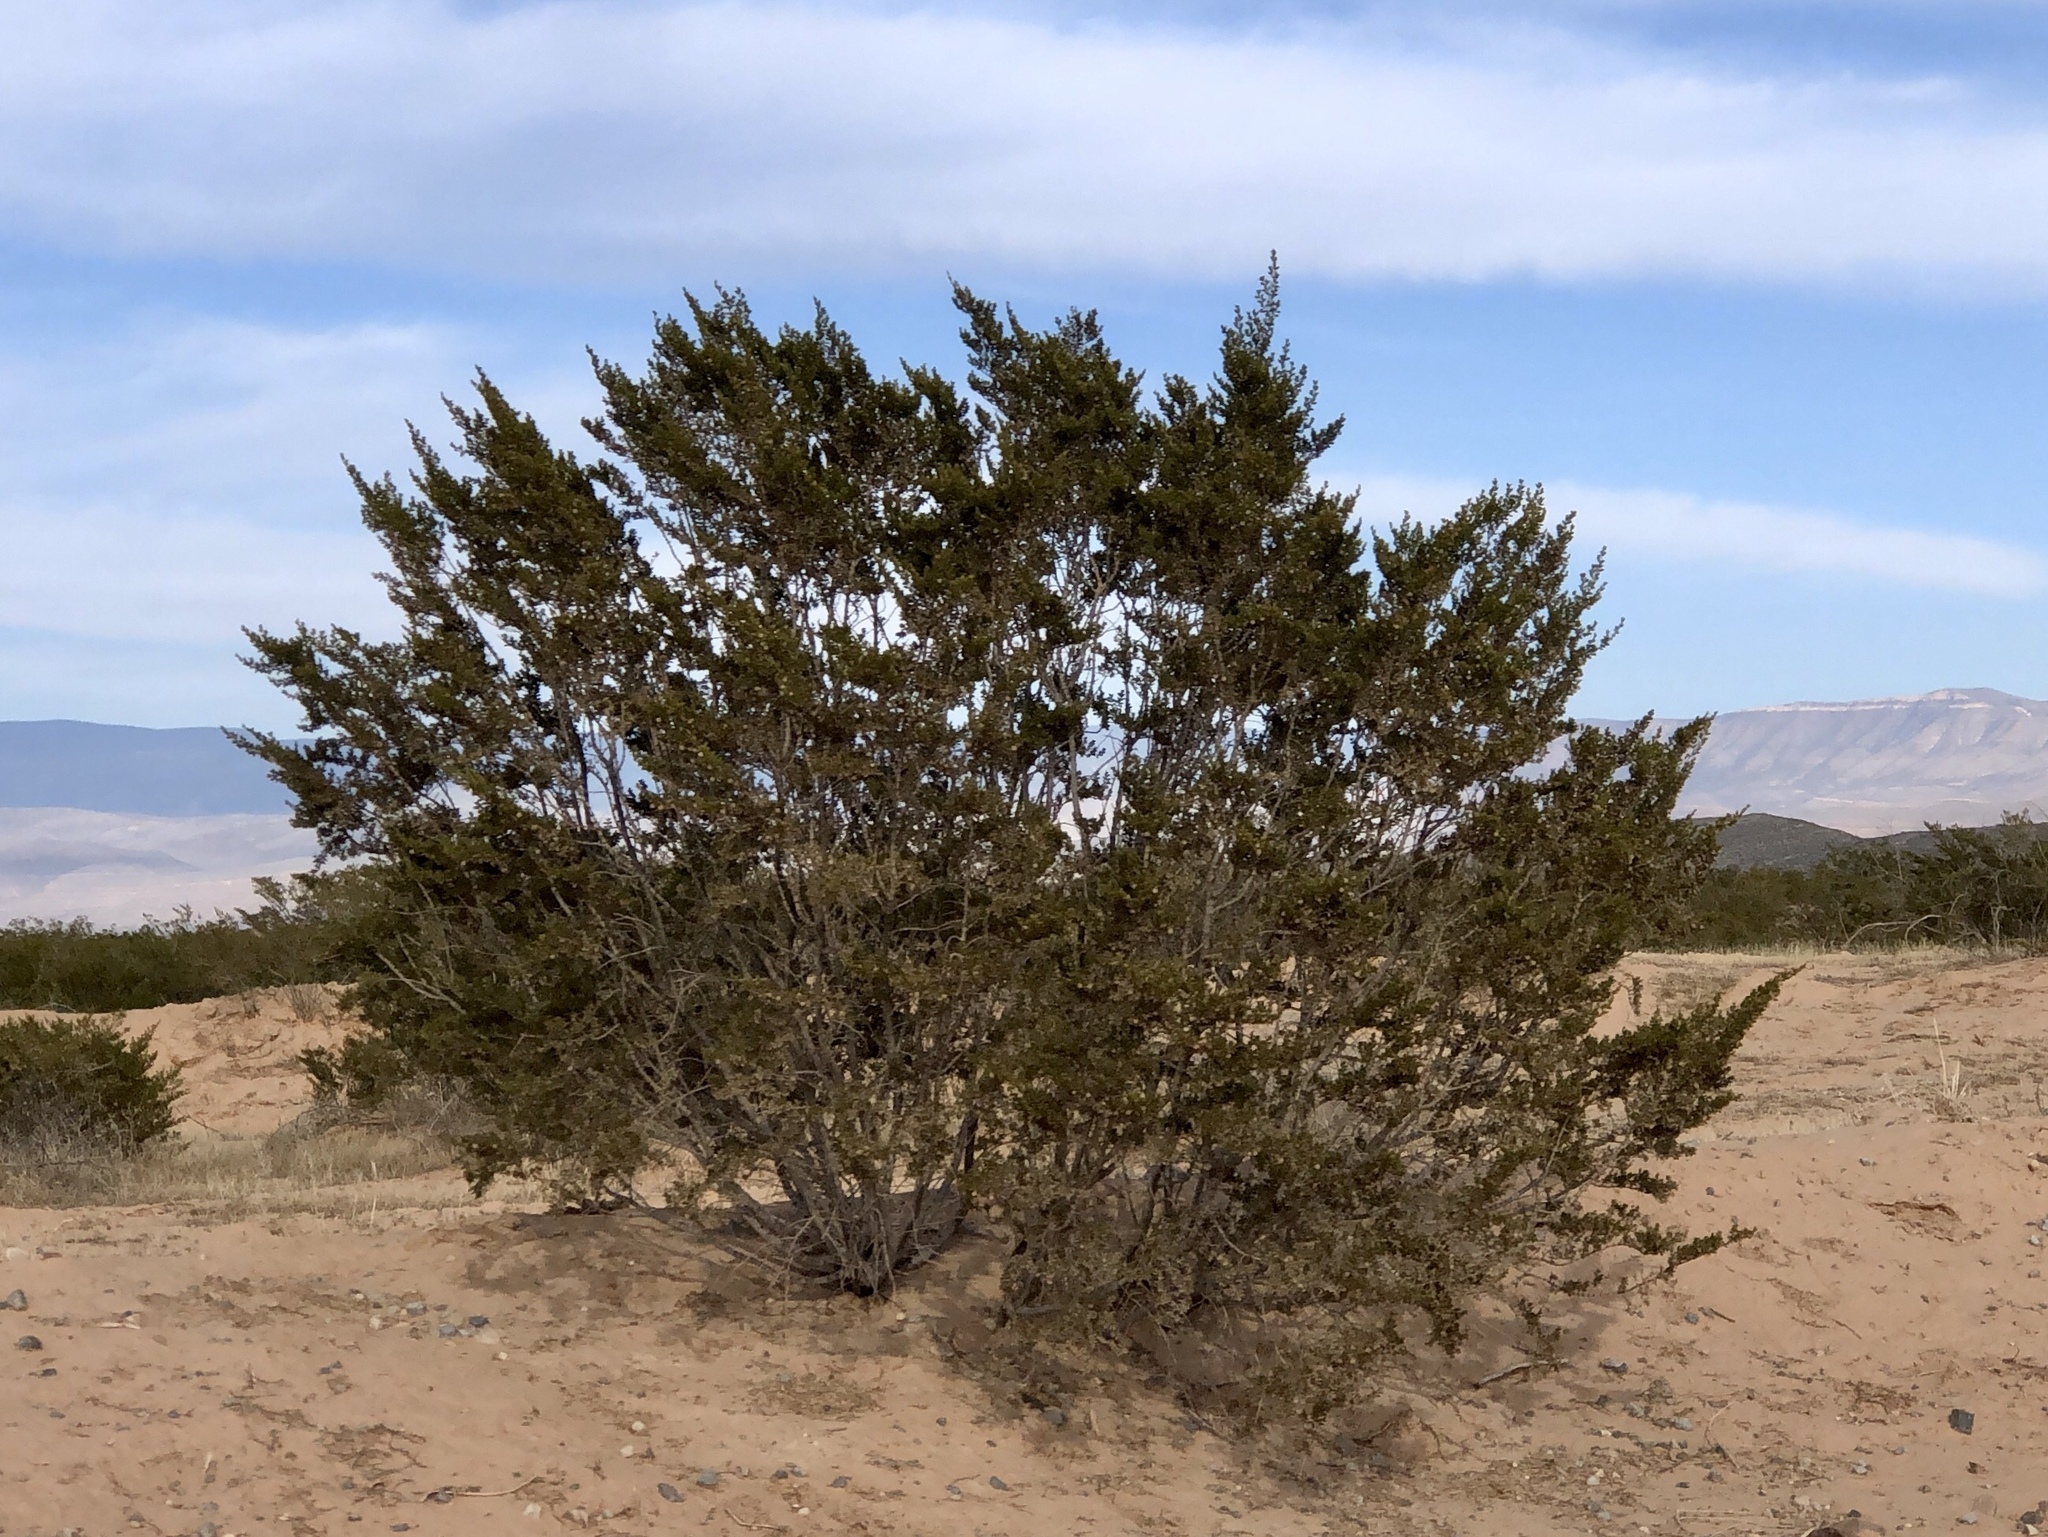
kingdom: Plantae
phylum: Tracheophyta
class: Magnoliopsida
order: Zygophyllales
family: Zygophyllaceae
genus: Larrea
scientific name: Larrea tridentata
